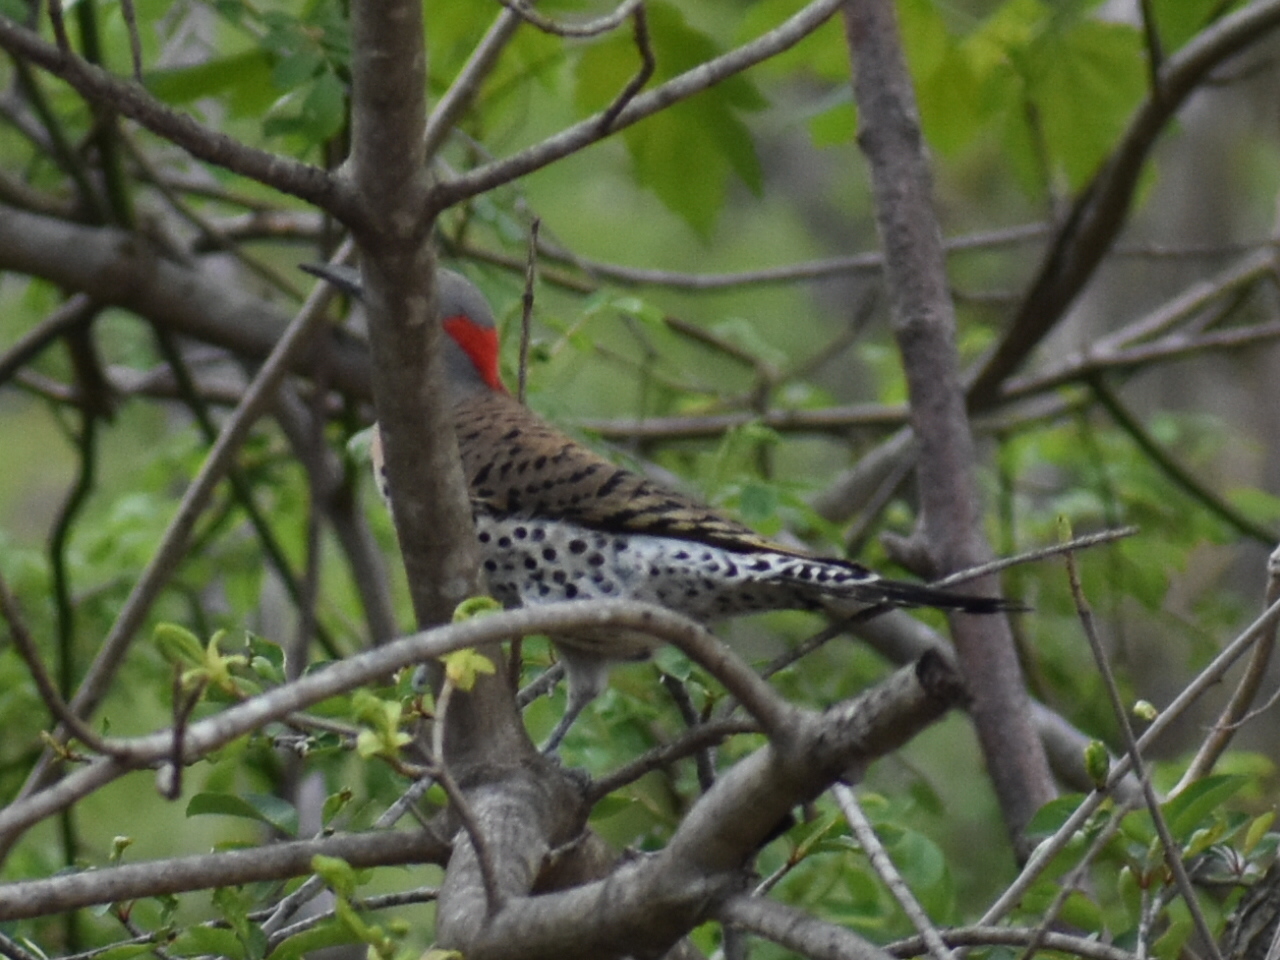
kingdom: Animalia
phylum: Chordata
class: Aves
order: Piciformes
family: Picidae
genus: Colaptes
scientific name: Colaptes auratus
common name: Northern flicker
